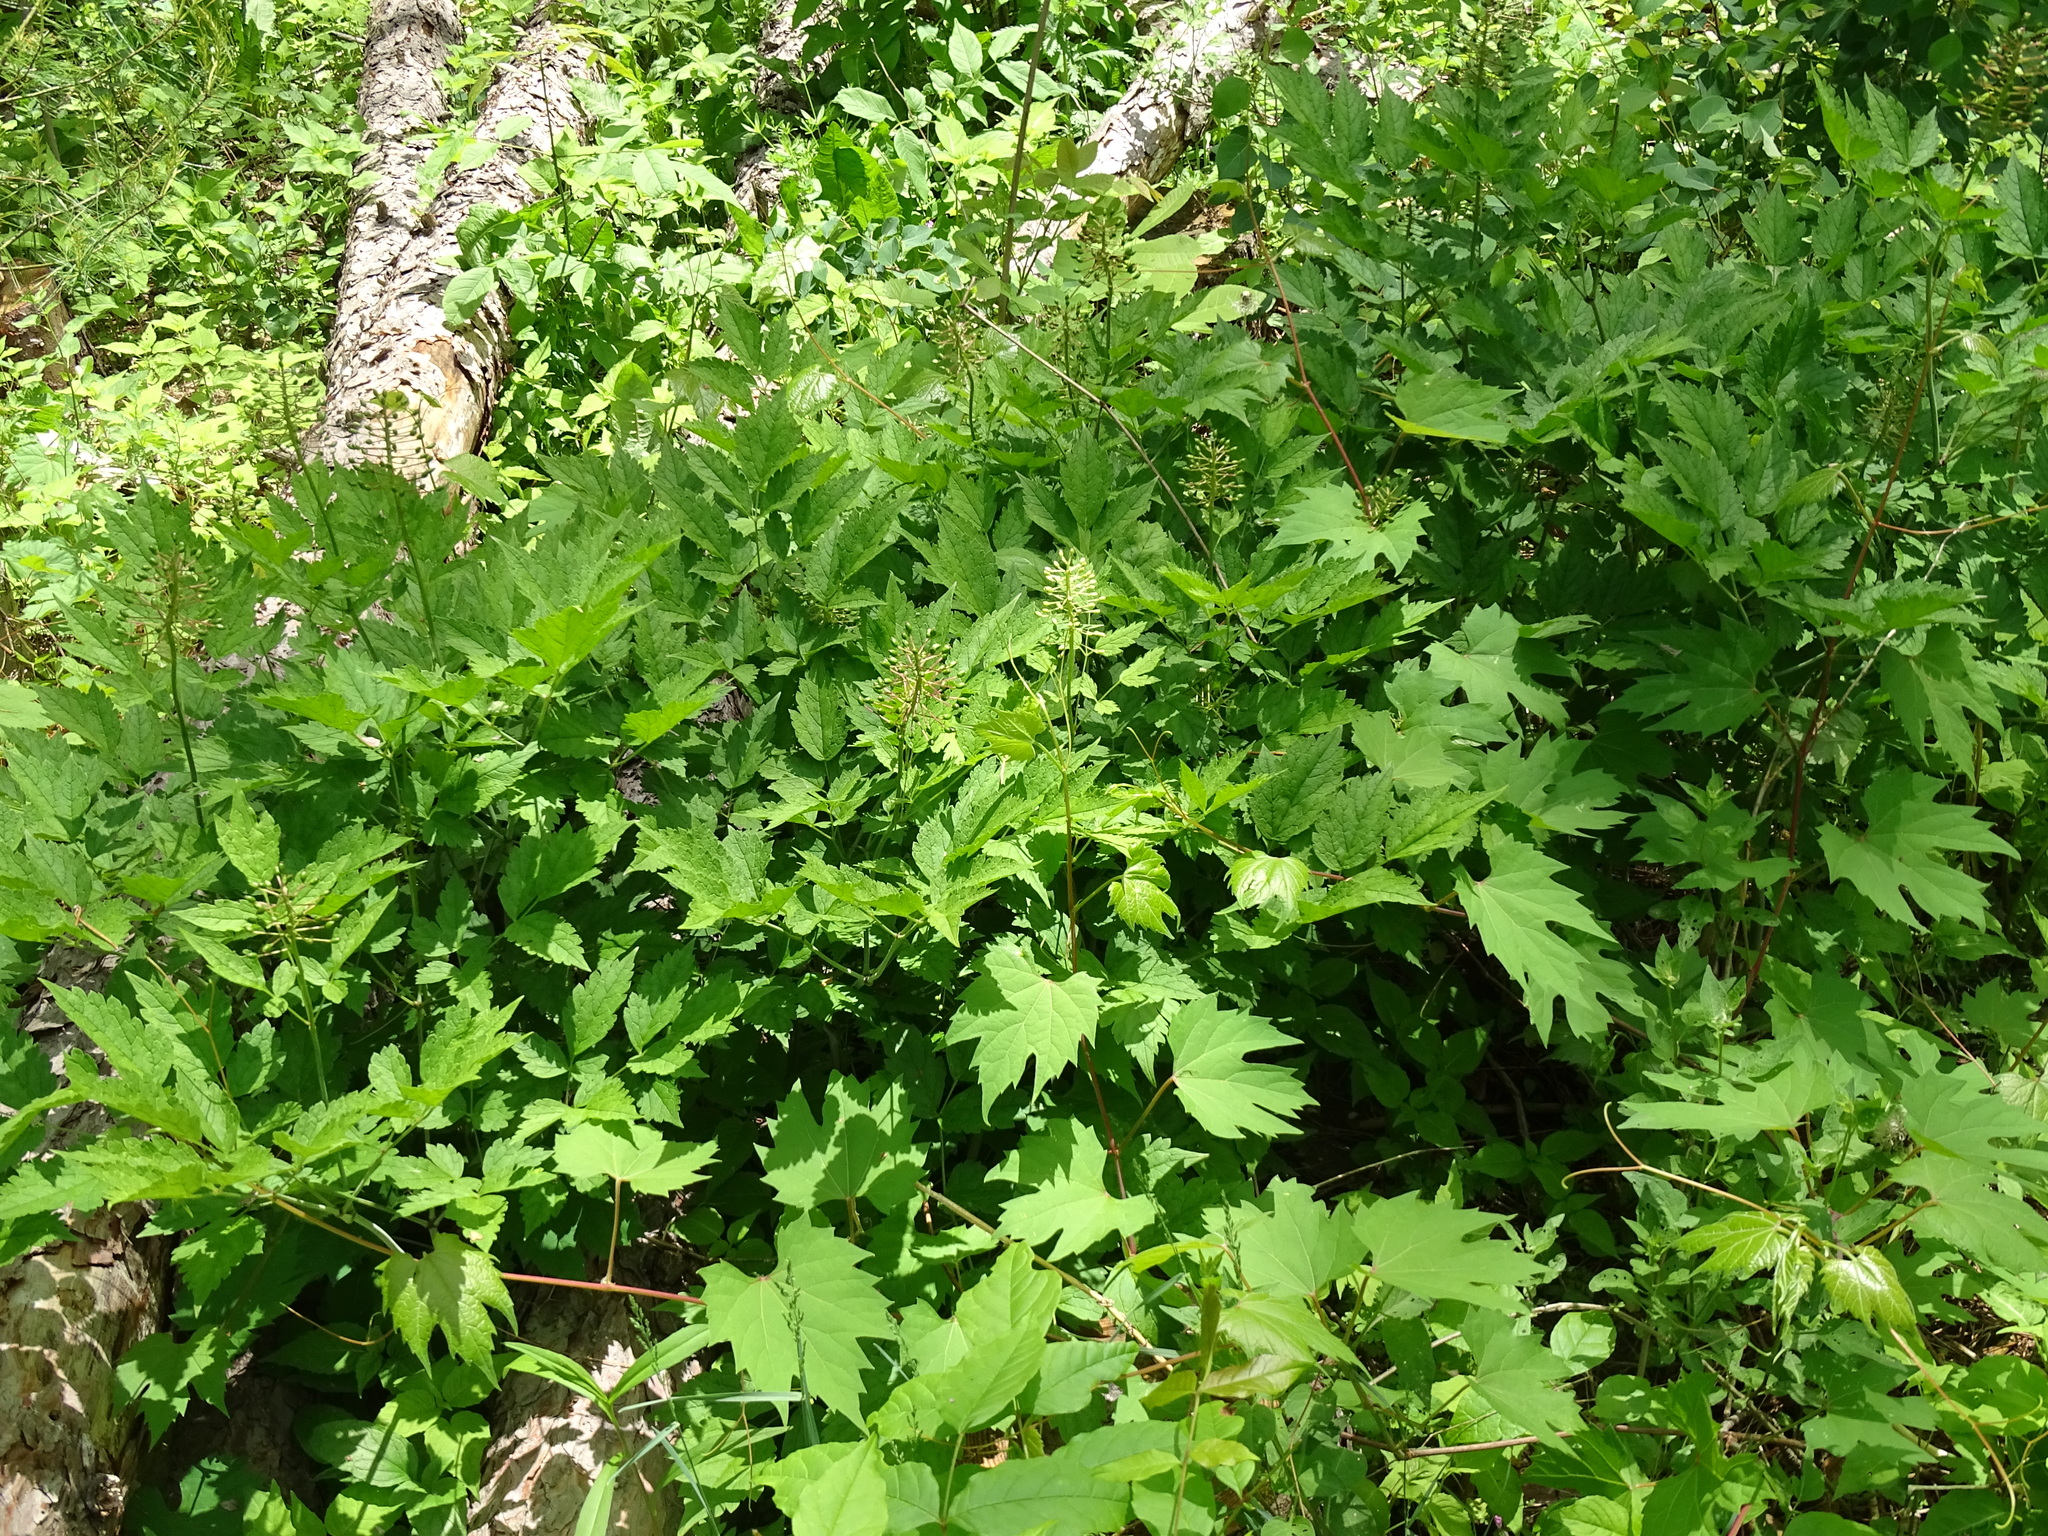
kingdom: Plantae
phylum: Tracheophyta
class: Magnoliopsida
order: Ranunculales
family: Ranunculaceae
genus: Actaea
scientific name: Actaea rubra
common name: Red baneberry
